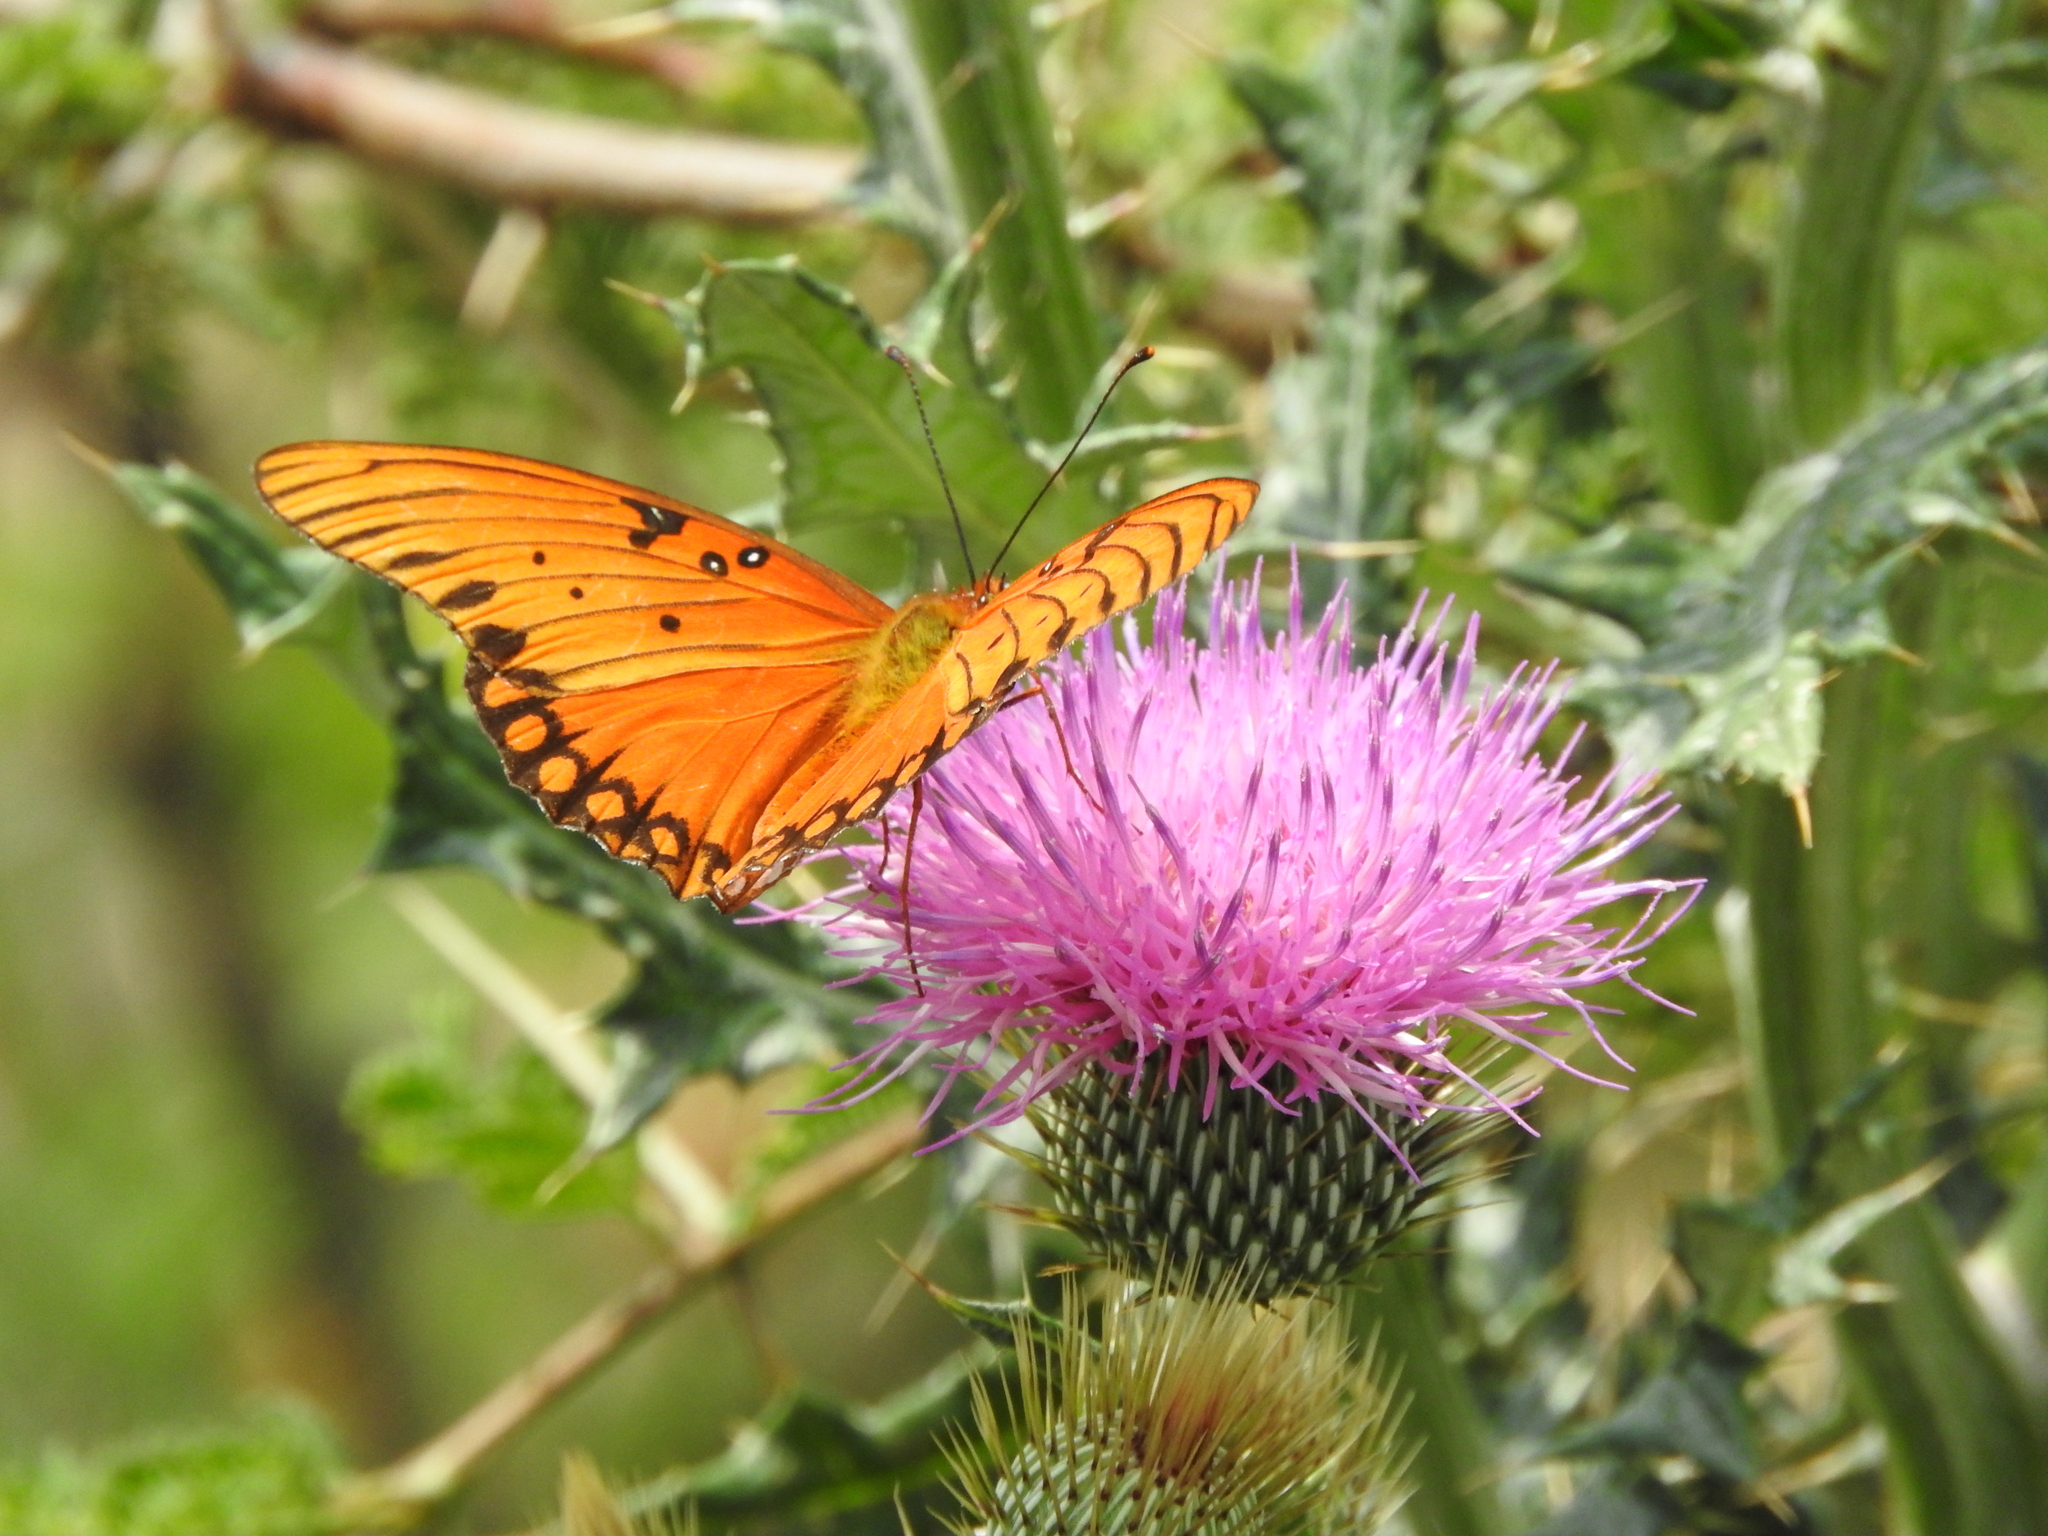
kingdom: Animalia
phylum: Arthropoda
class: Insecta
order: Lepidoptera
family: Nymphalidae
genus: Dione
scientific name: Dione vanillae
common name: Gulf fritillary
